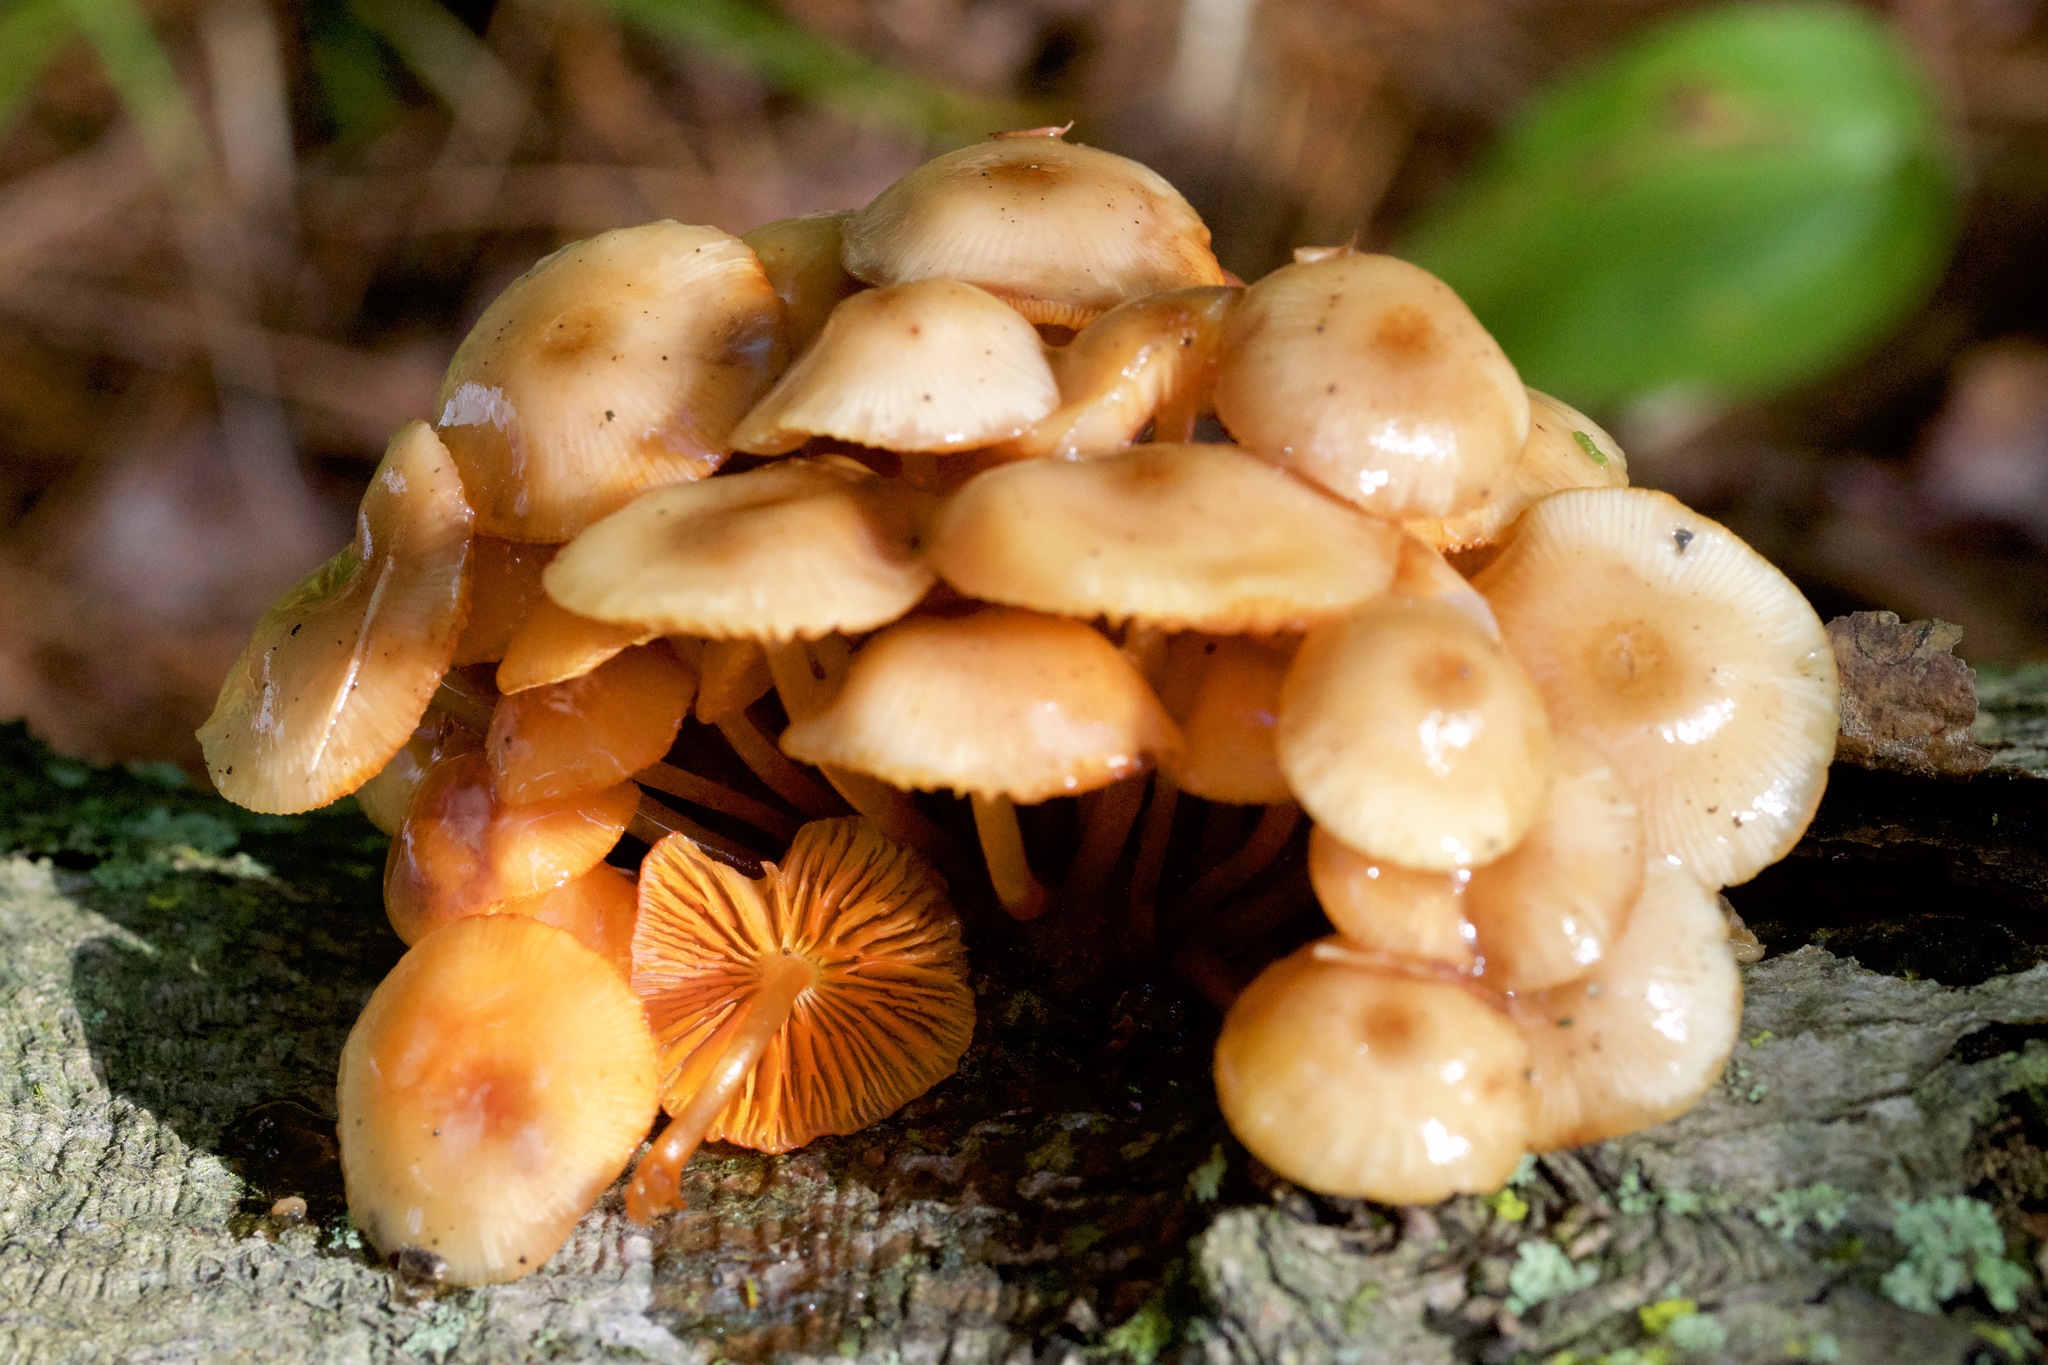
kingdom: Fungi
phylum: Basidiomycota
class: Agaricomycetes
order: Agaricales
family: Mycenaceae
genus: Mycena
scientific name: Mycena leaiana
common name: Orange mycena
